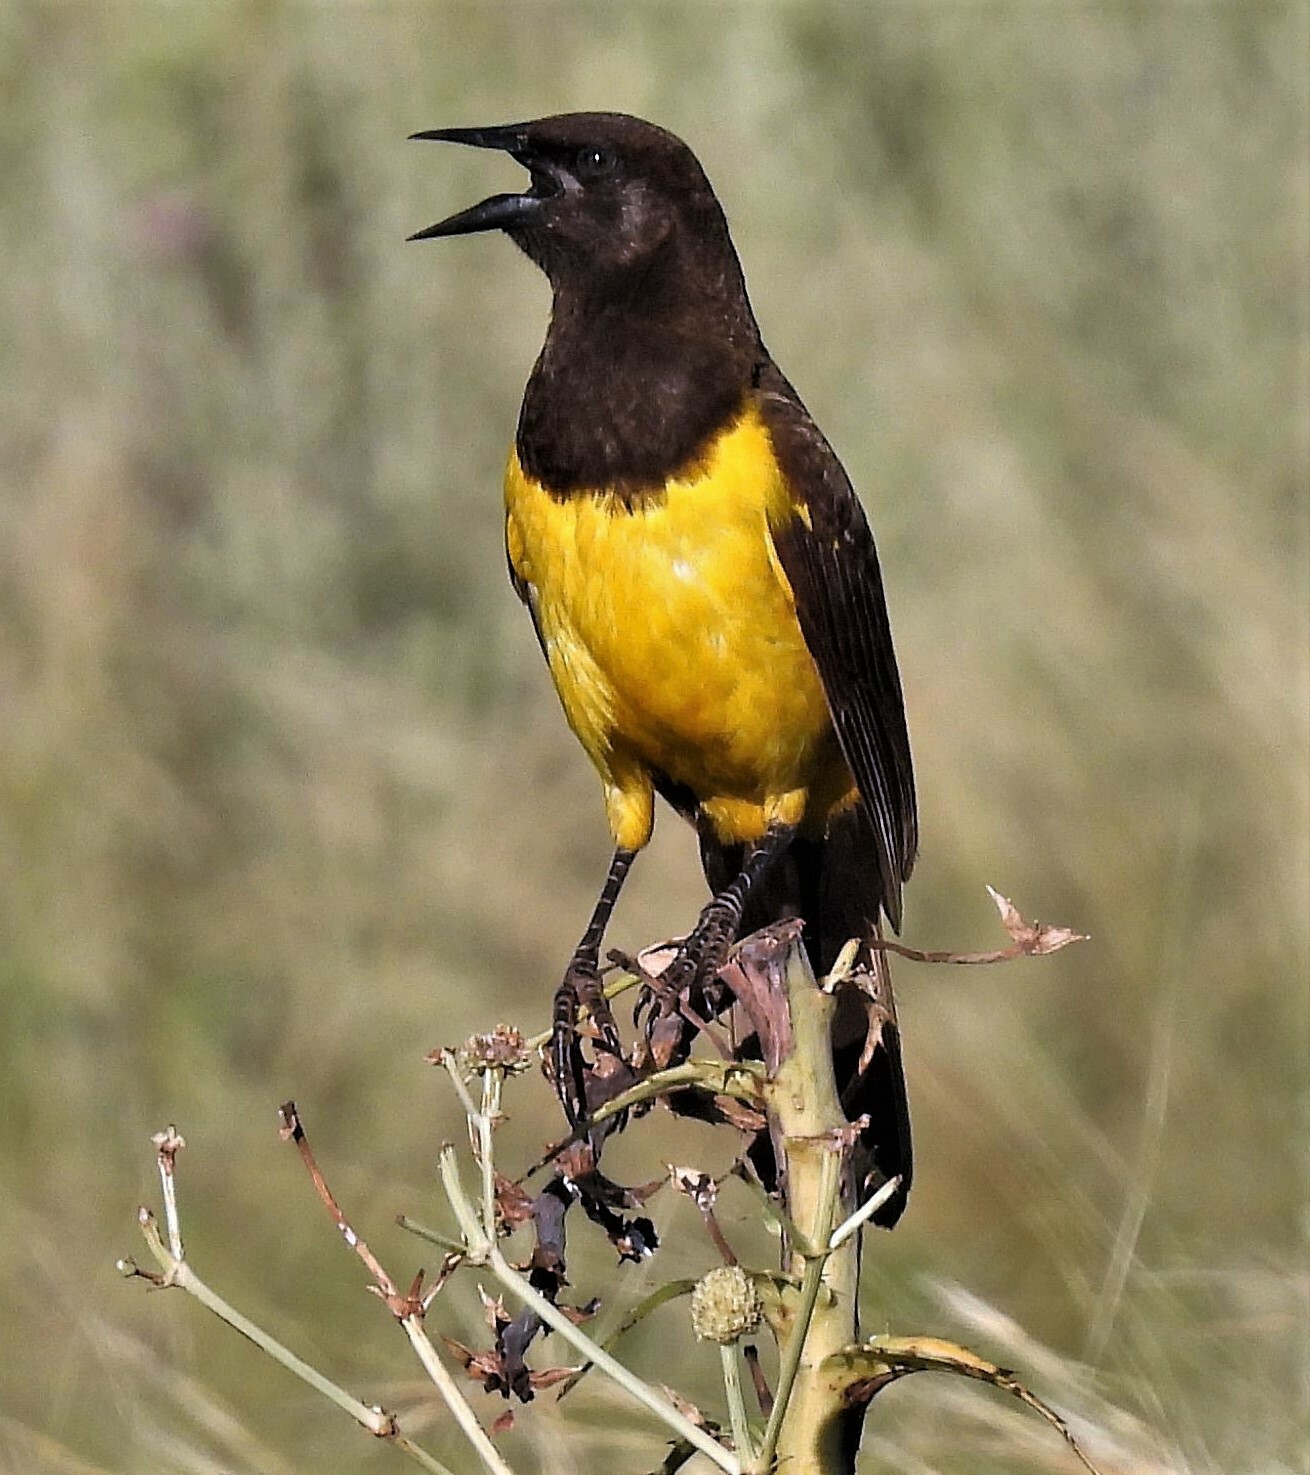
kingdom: Animalia
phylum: Chordata
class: Aves
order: Passeriformes
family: Icteridae
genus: Pseudoleistes
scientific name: Pseudoleistes guirahuro
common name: Yellow-rumped marshbird
